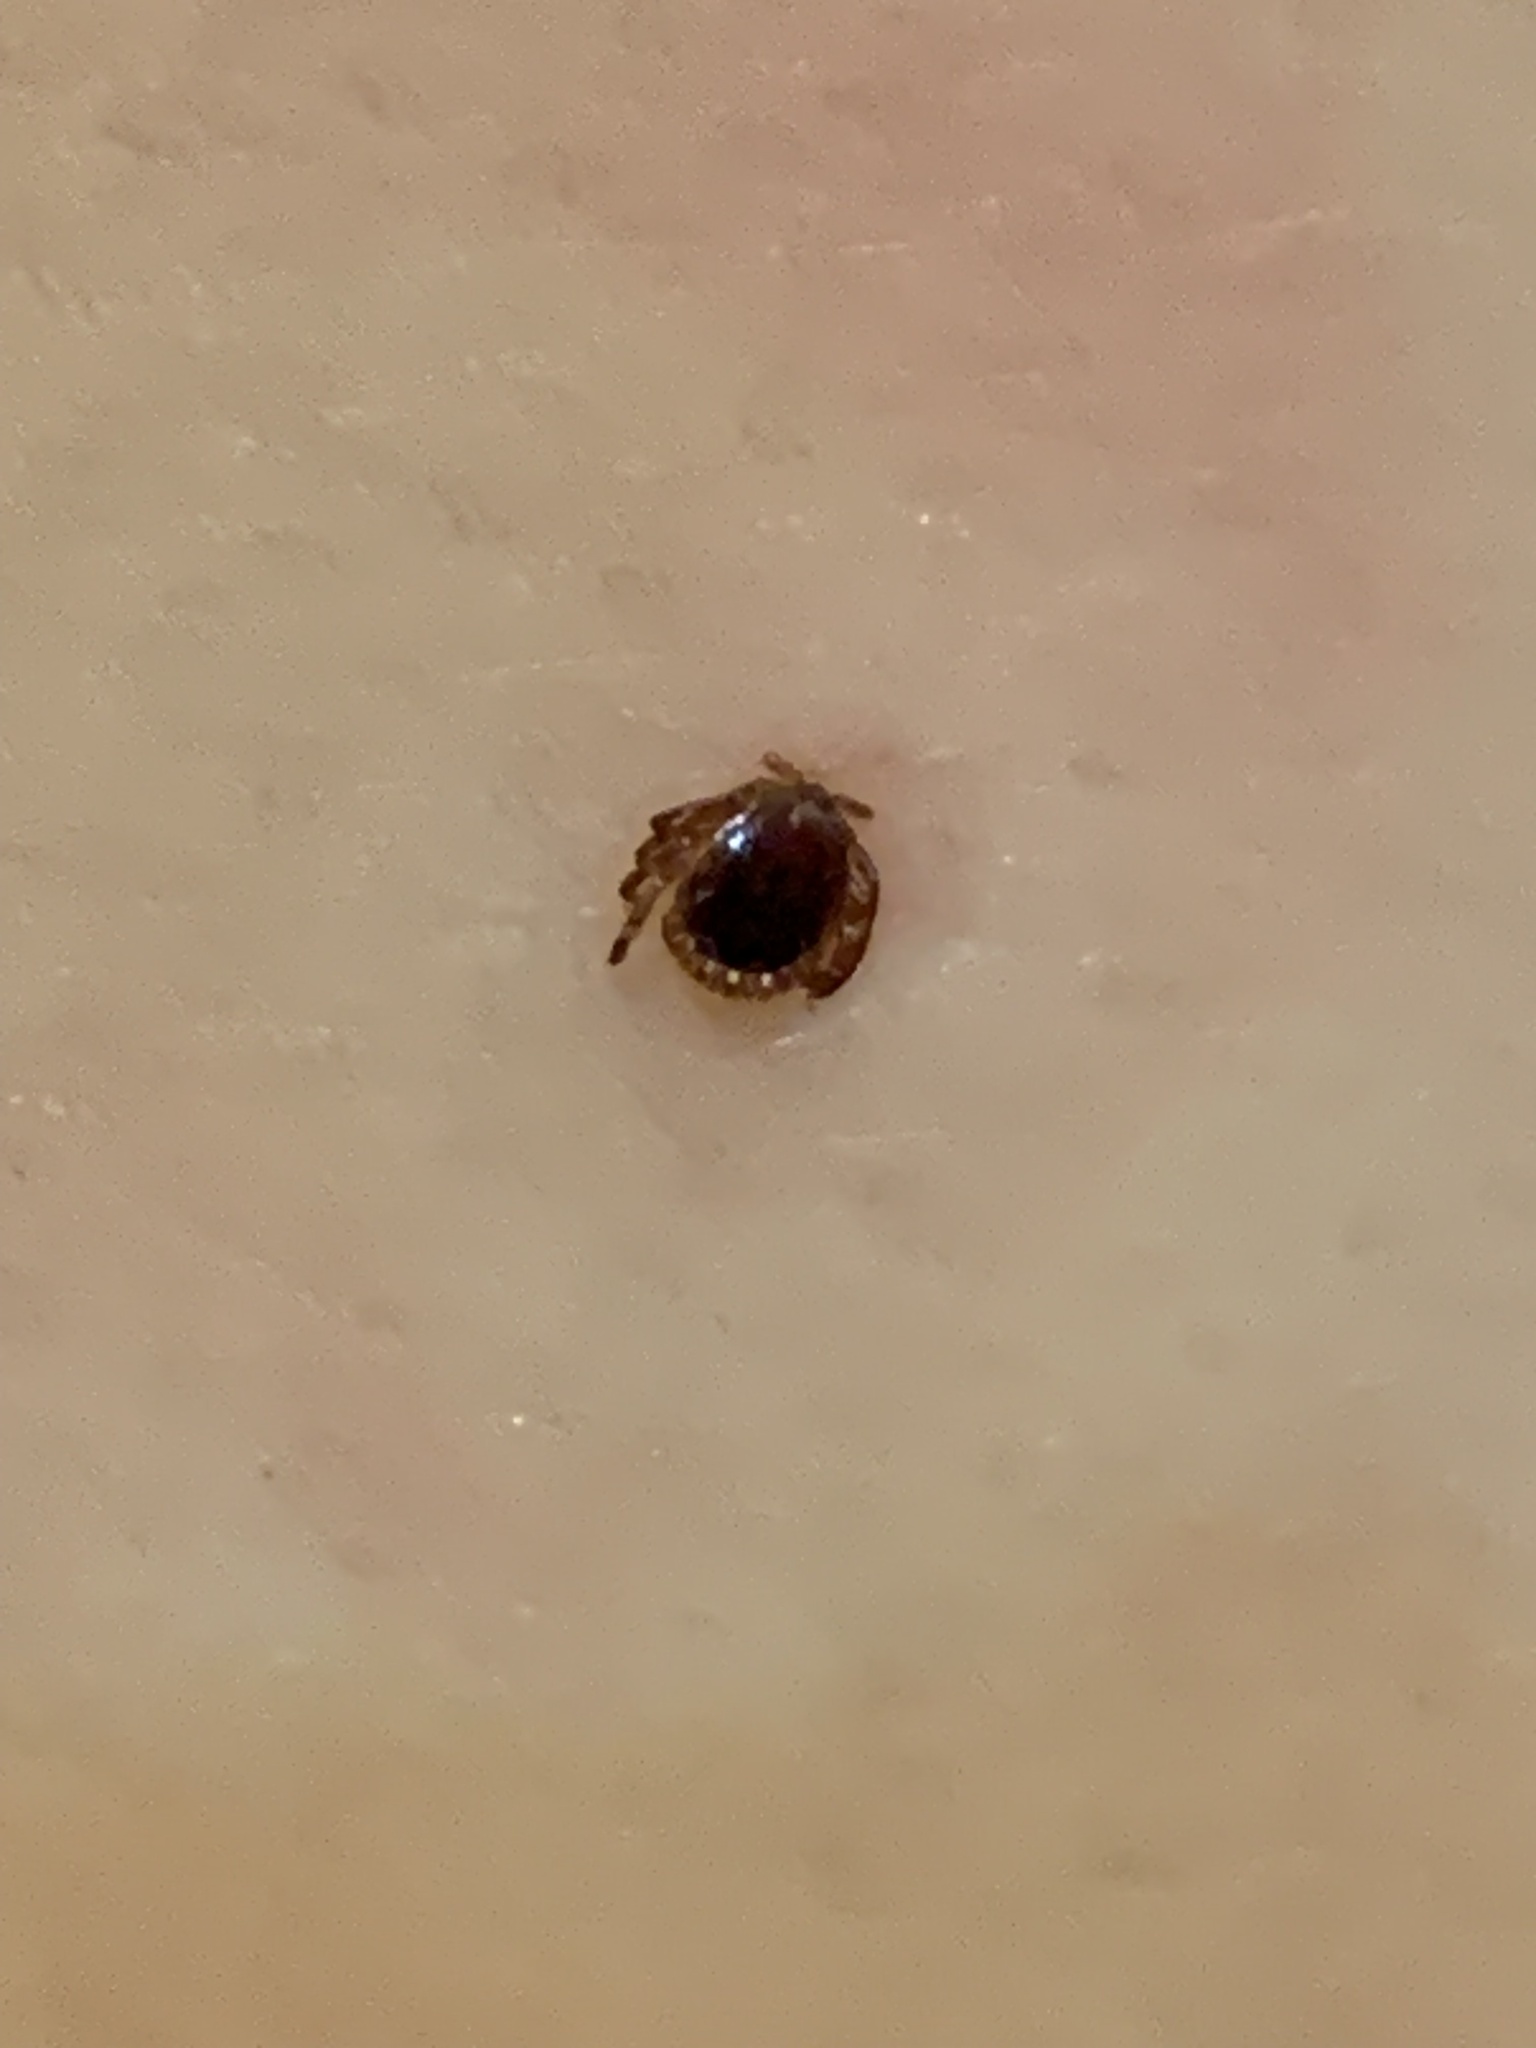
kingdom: Animalia
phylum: Arthropoda
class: Arachnida
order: Ixodida
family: Ixodidae
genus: Amblyomma
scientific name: Amblyomma americanum
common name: Lone star tick
